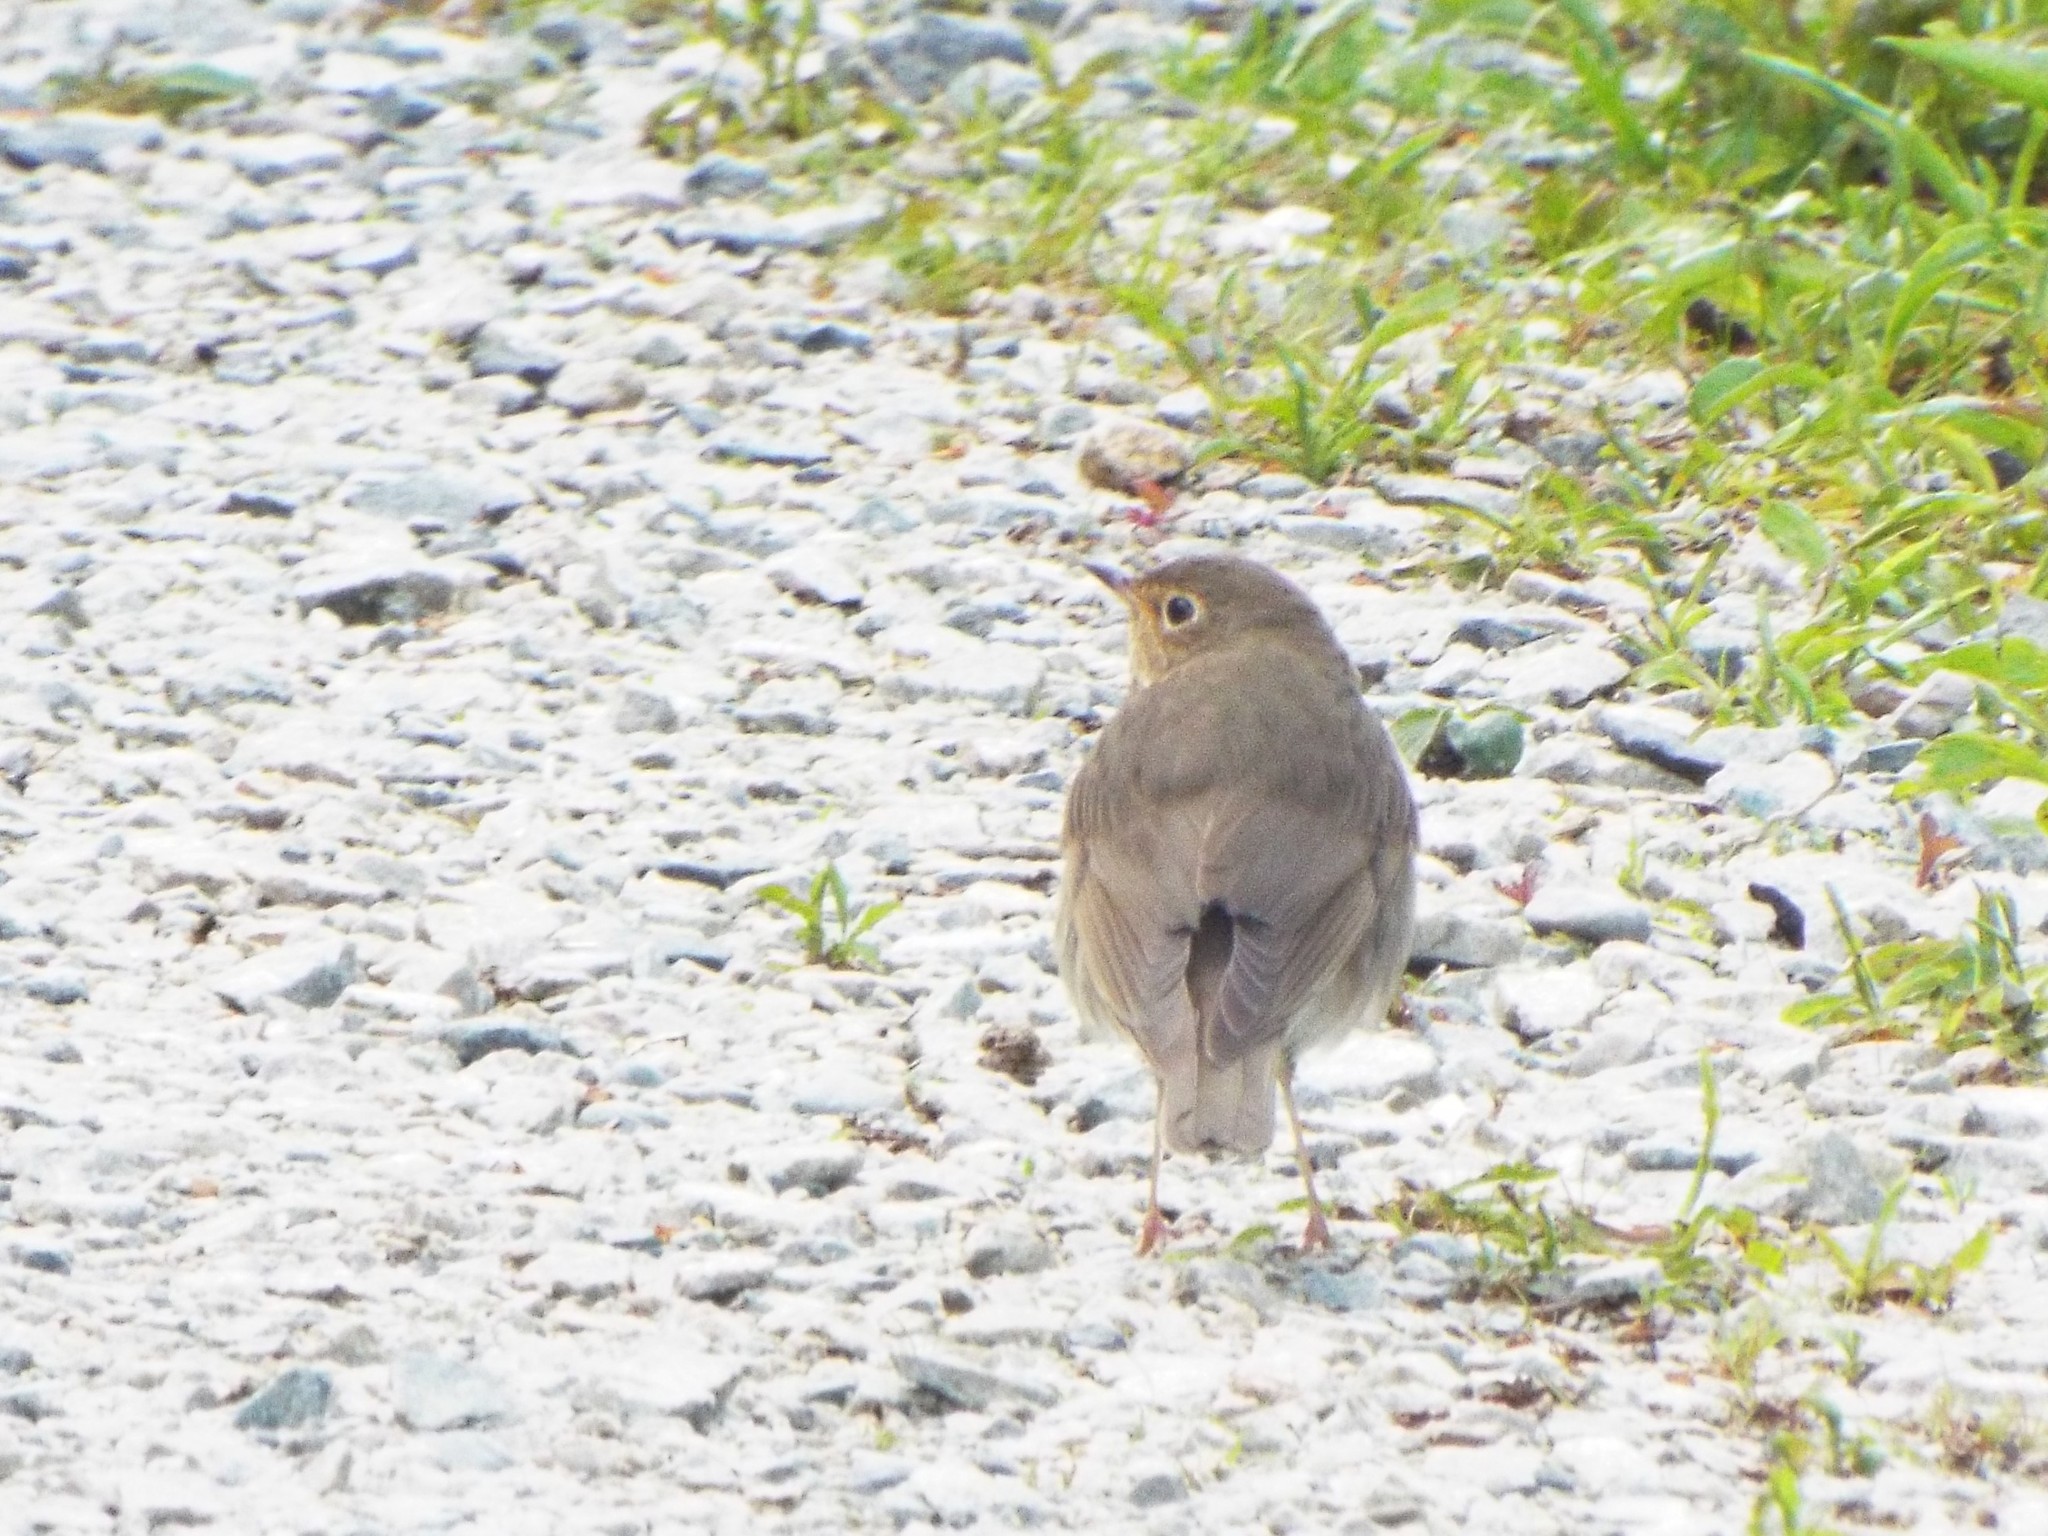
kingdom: Animalia
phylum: Chordata
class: Aves
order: Passeriformes
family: Turdidae
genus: Catharus
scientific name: Catharus ustulatus
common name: Swainson's thrush
